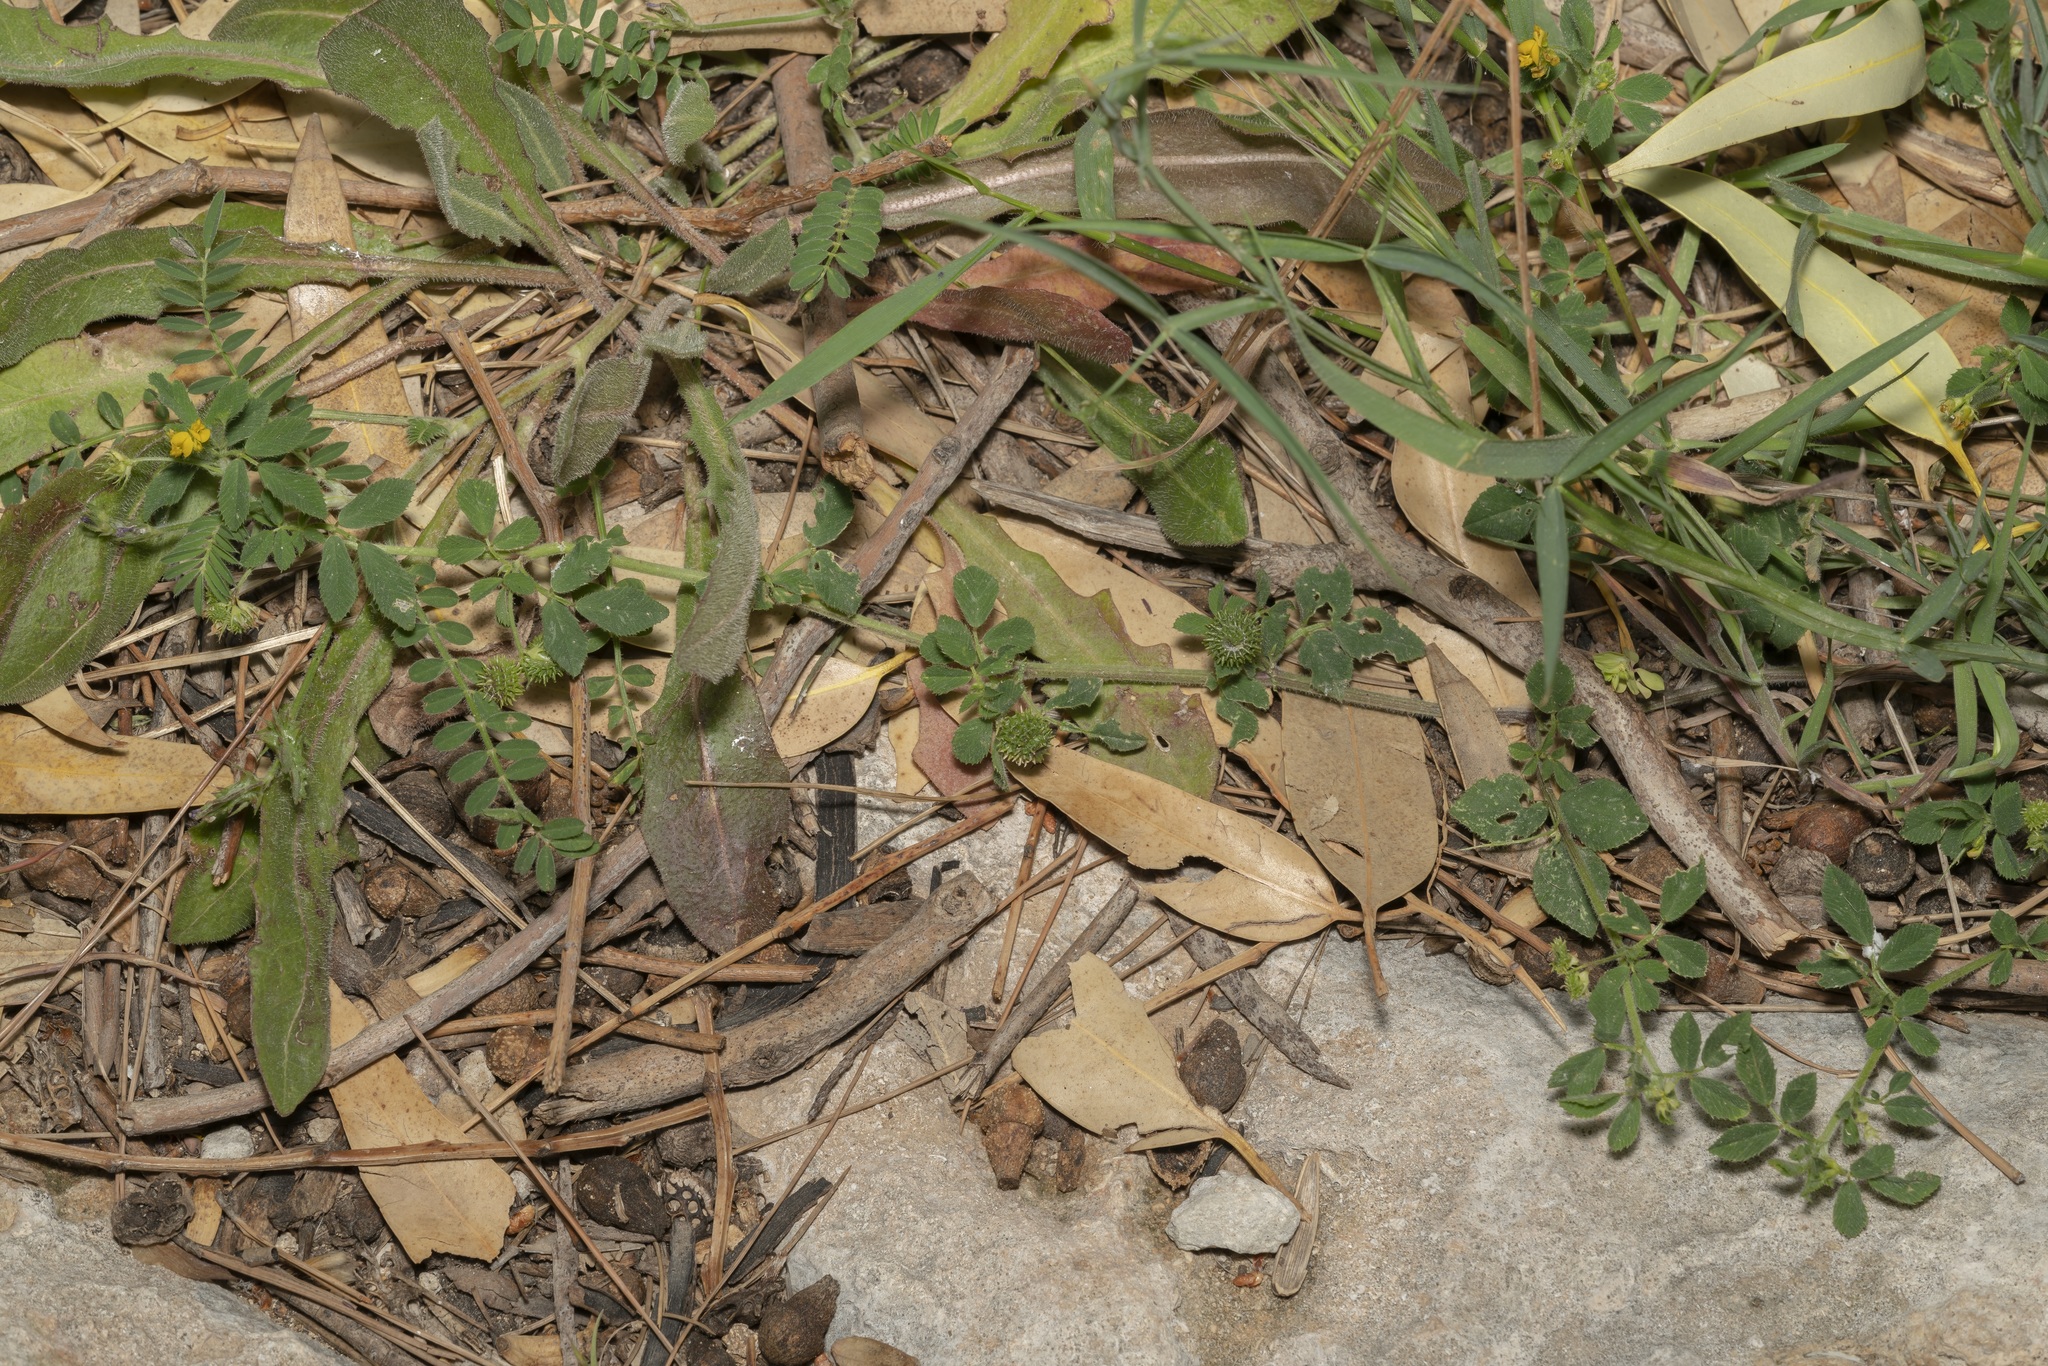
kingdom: Plantae
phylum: Tracheophyta
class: Magnoliopsida
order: Fabales
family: Fabaceae
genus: Medicago
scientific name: Medicago turbinata
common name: Southern medick
